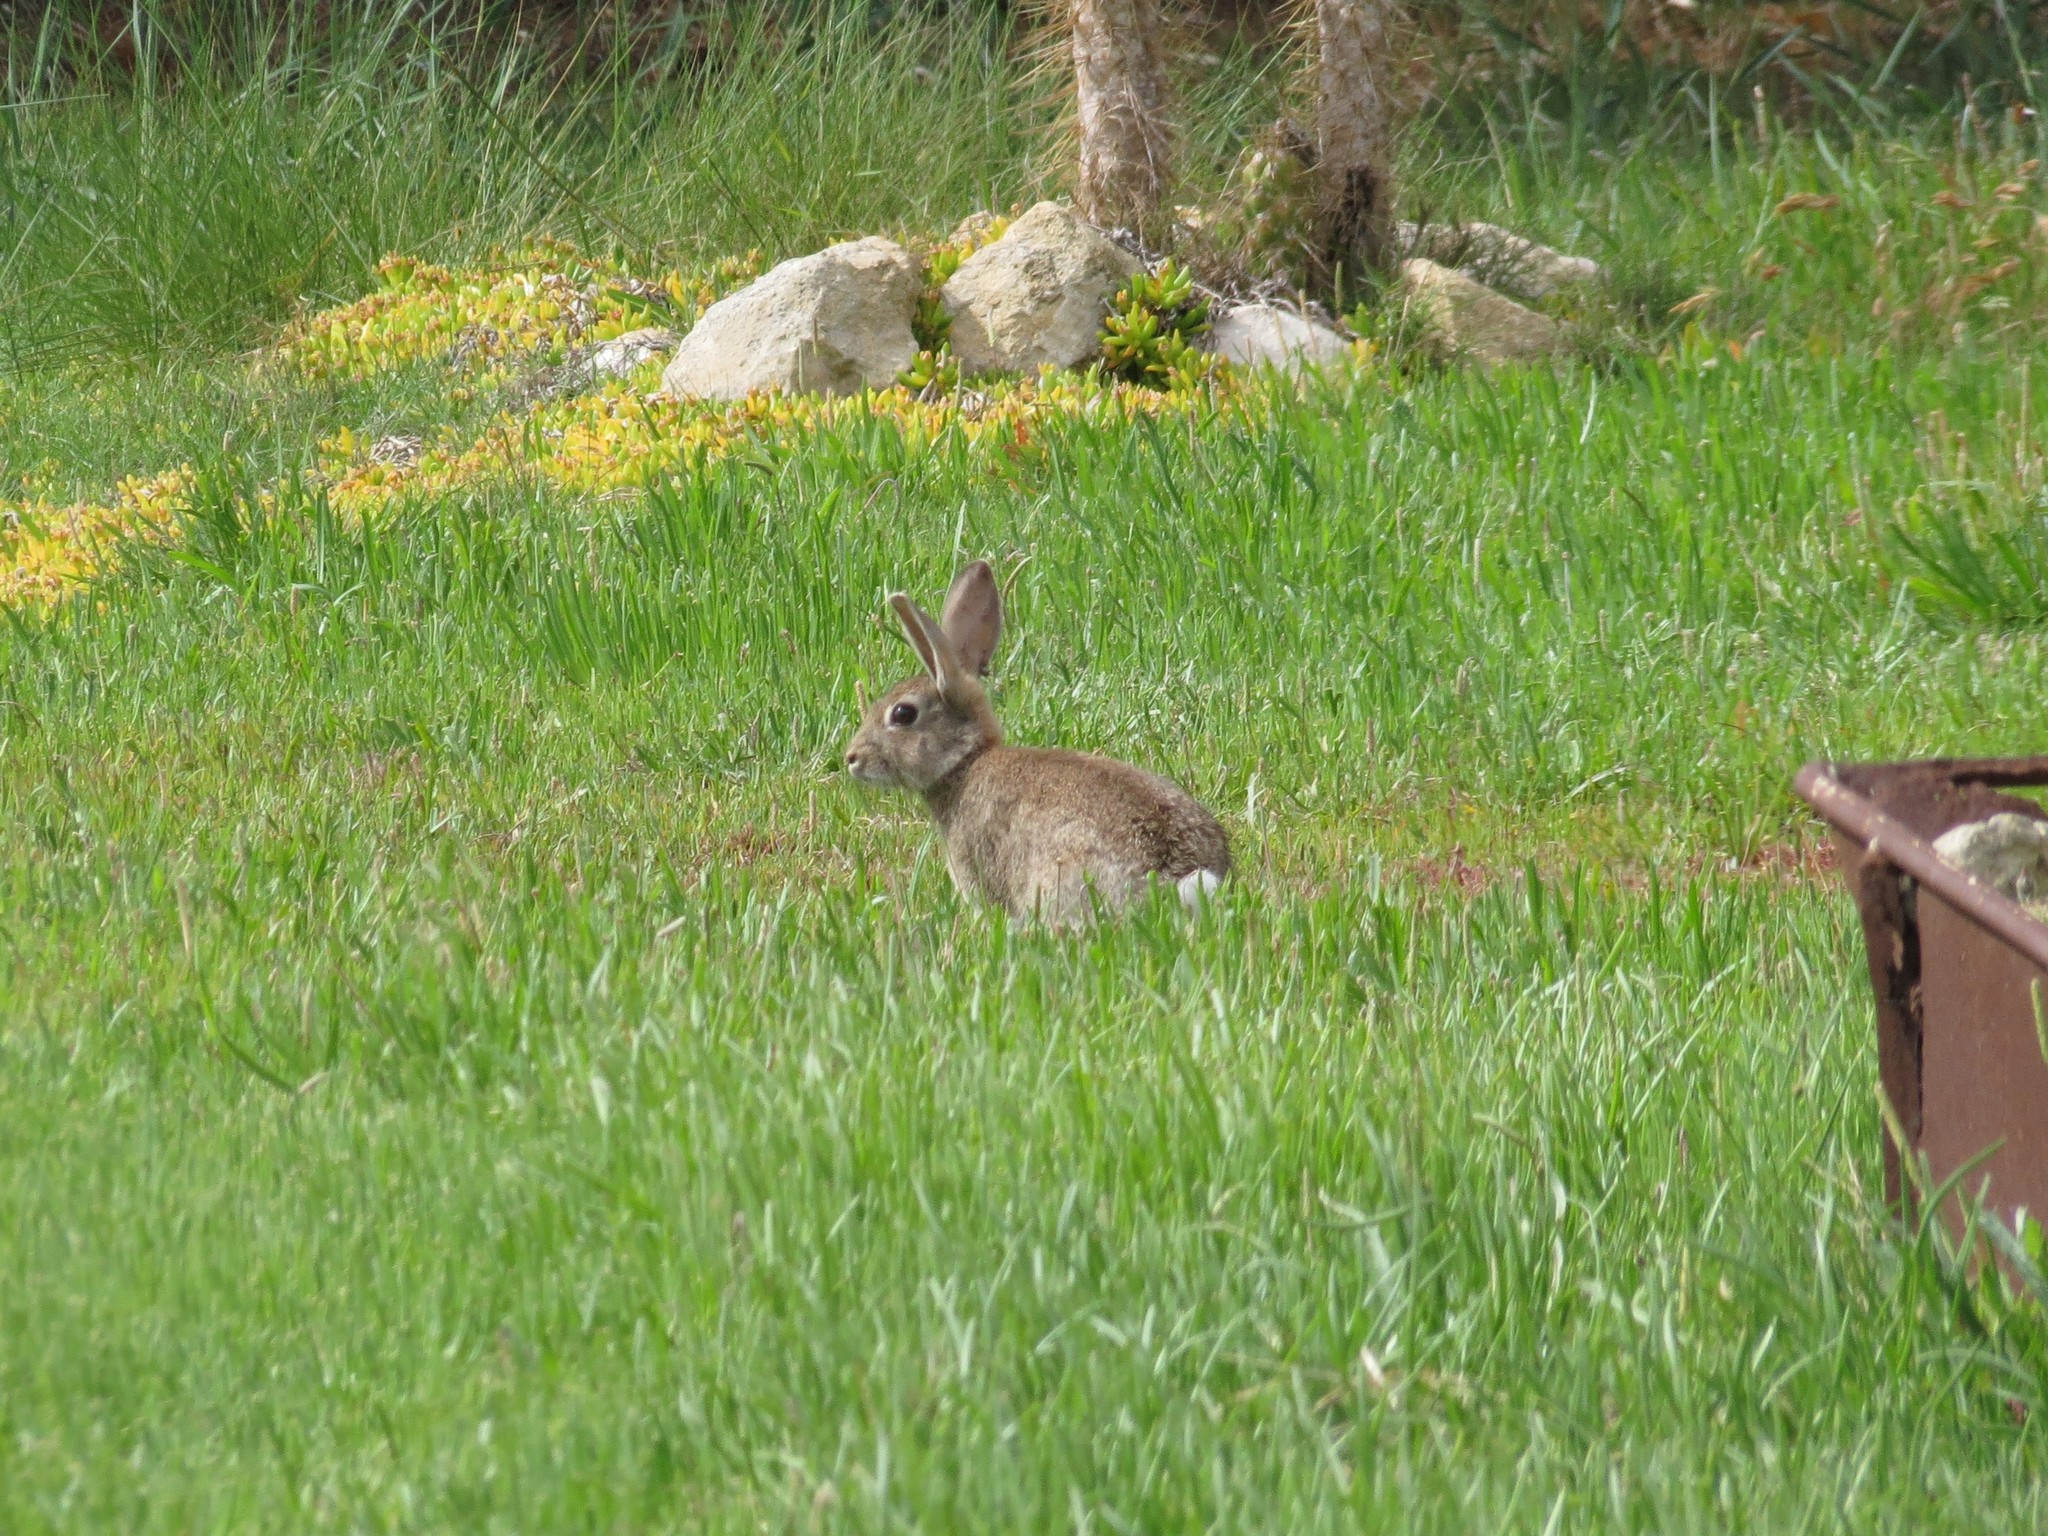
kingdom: Animalia
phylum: Chordata
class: Mammalia
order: Lagomorpha
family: Leporidae
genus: Oryctolagus
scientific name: Oryctolagus cuniculus
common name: European rabbit
